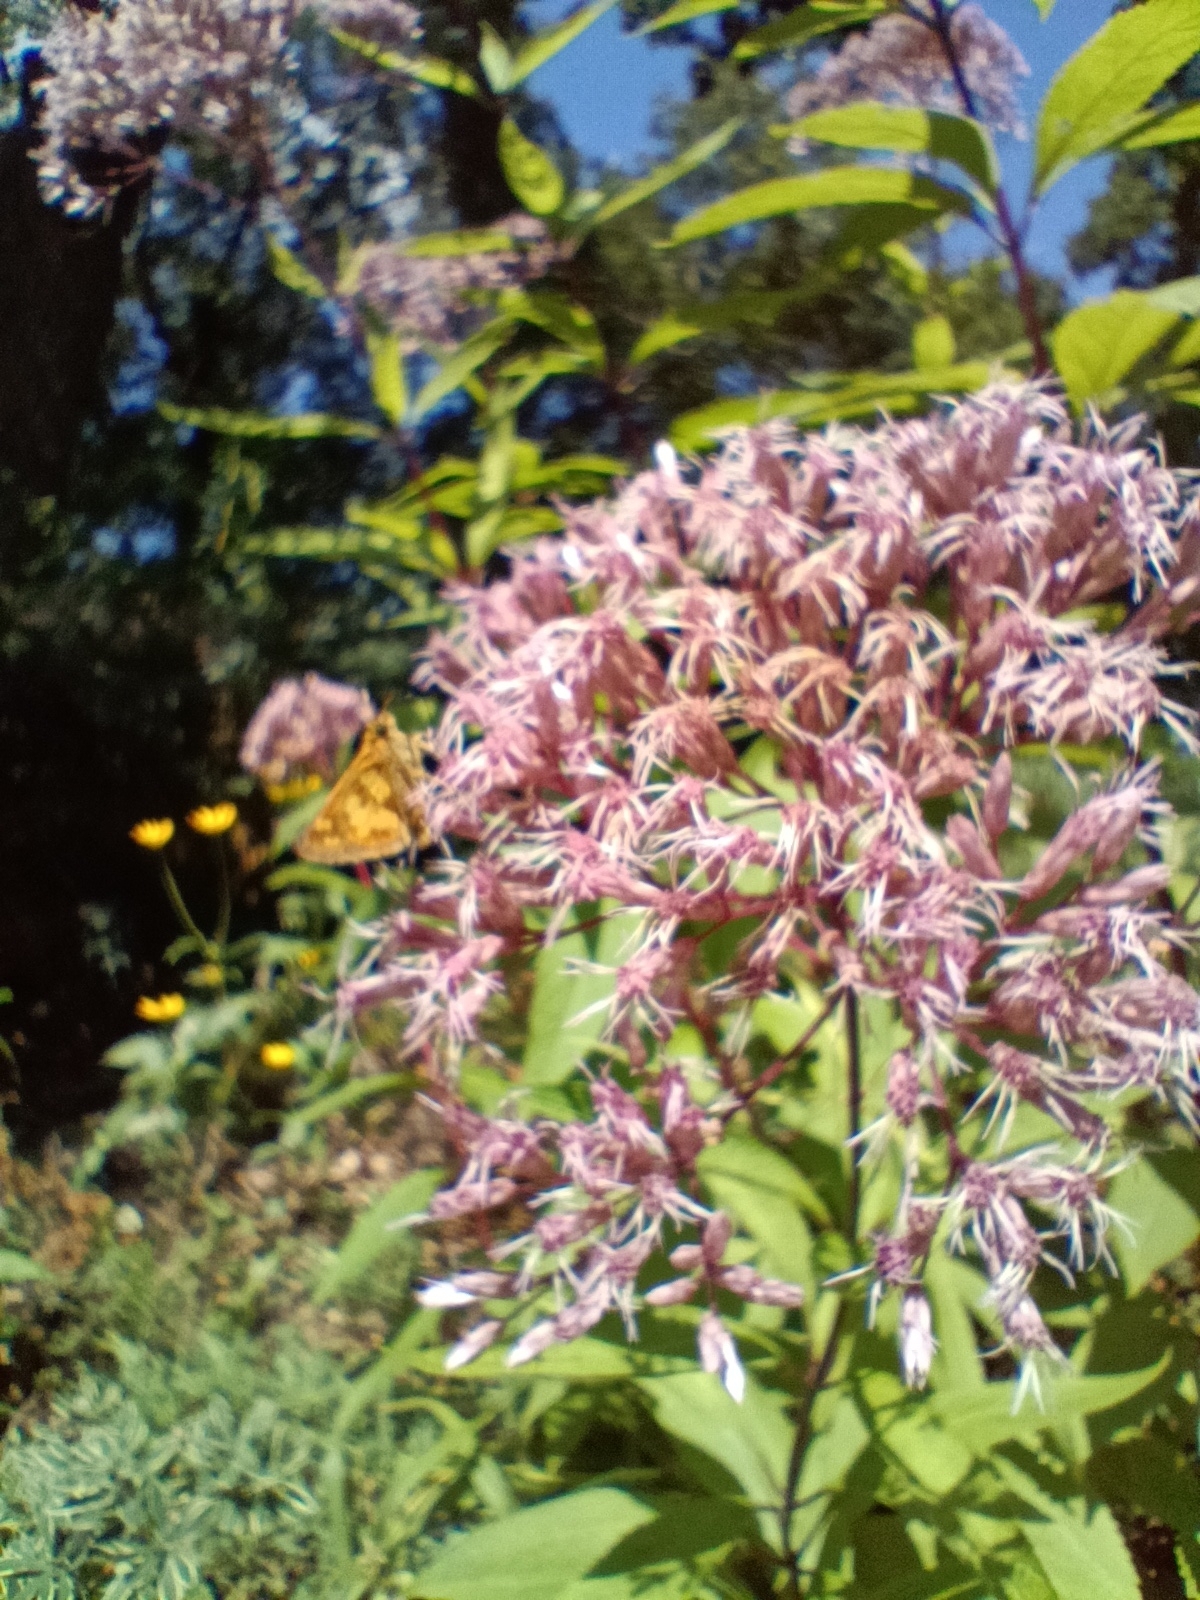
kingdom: Animalia
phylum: Arthropoda
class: Insecta
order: Lepidoptera
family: Hesperiidae
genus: Polites
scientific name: Polites coras
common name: Peck's skipper
